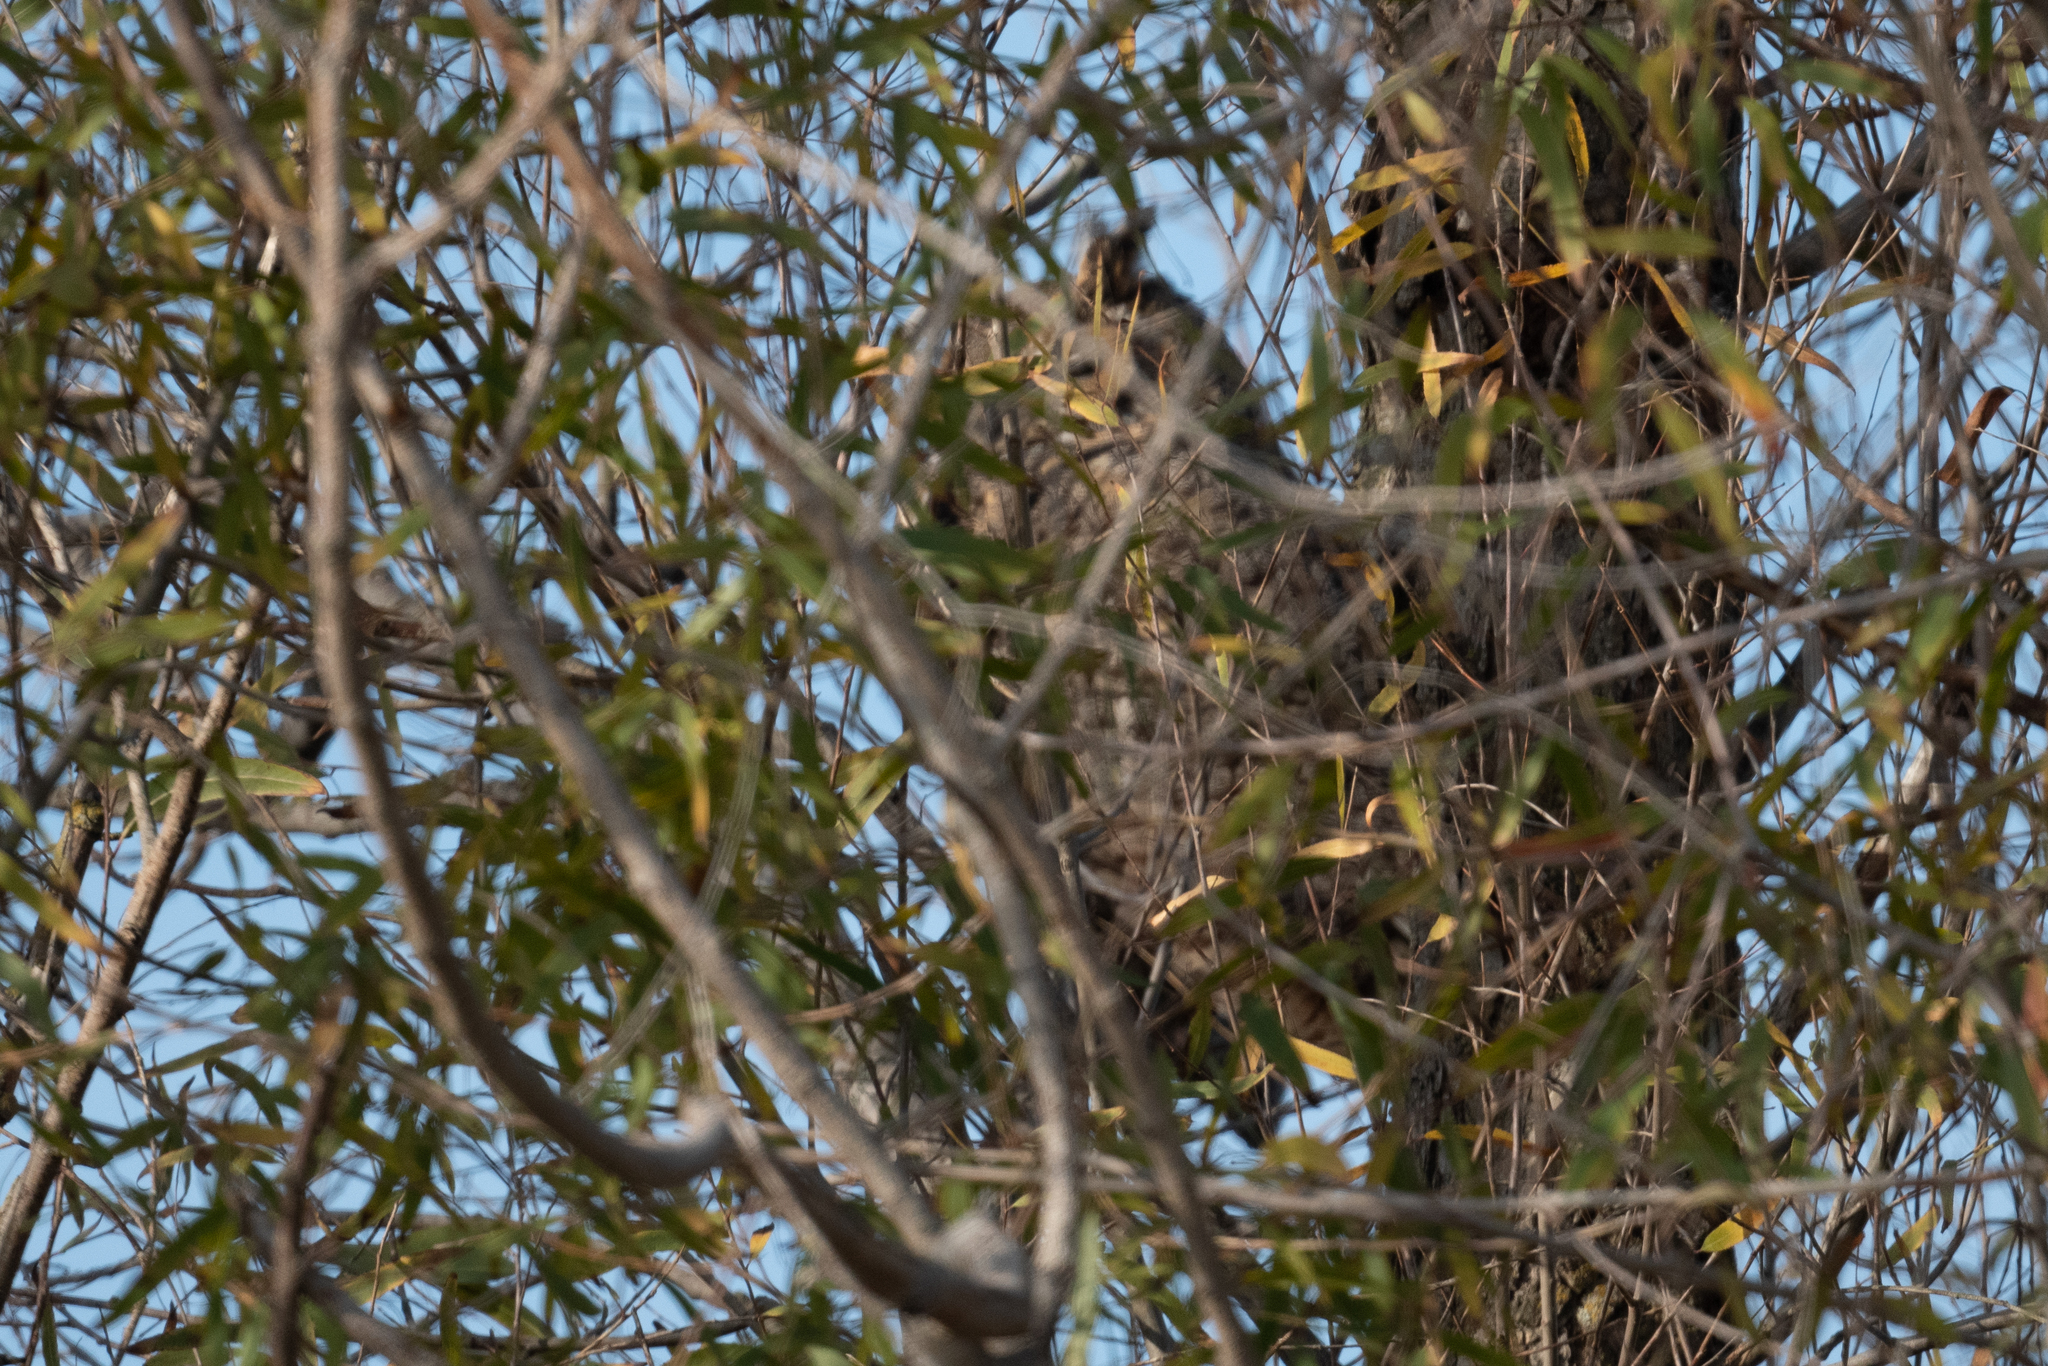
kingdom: Animalia
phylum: Chordata
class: Aves
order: Strigiformes
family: Strigidae
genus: Bubo
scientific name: Bubo virginianus
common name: Great horned owl
